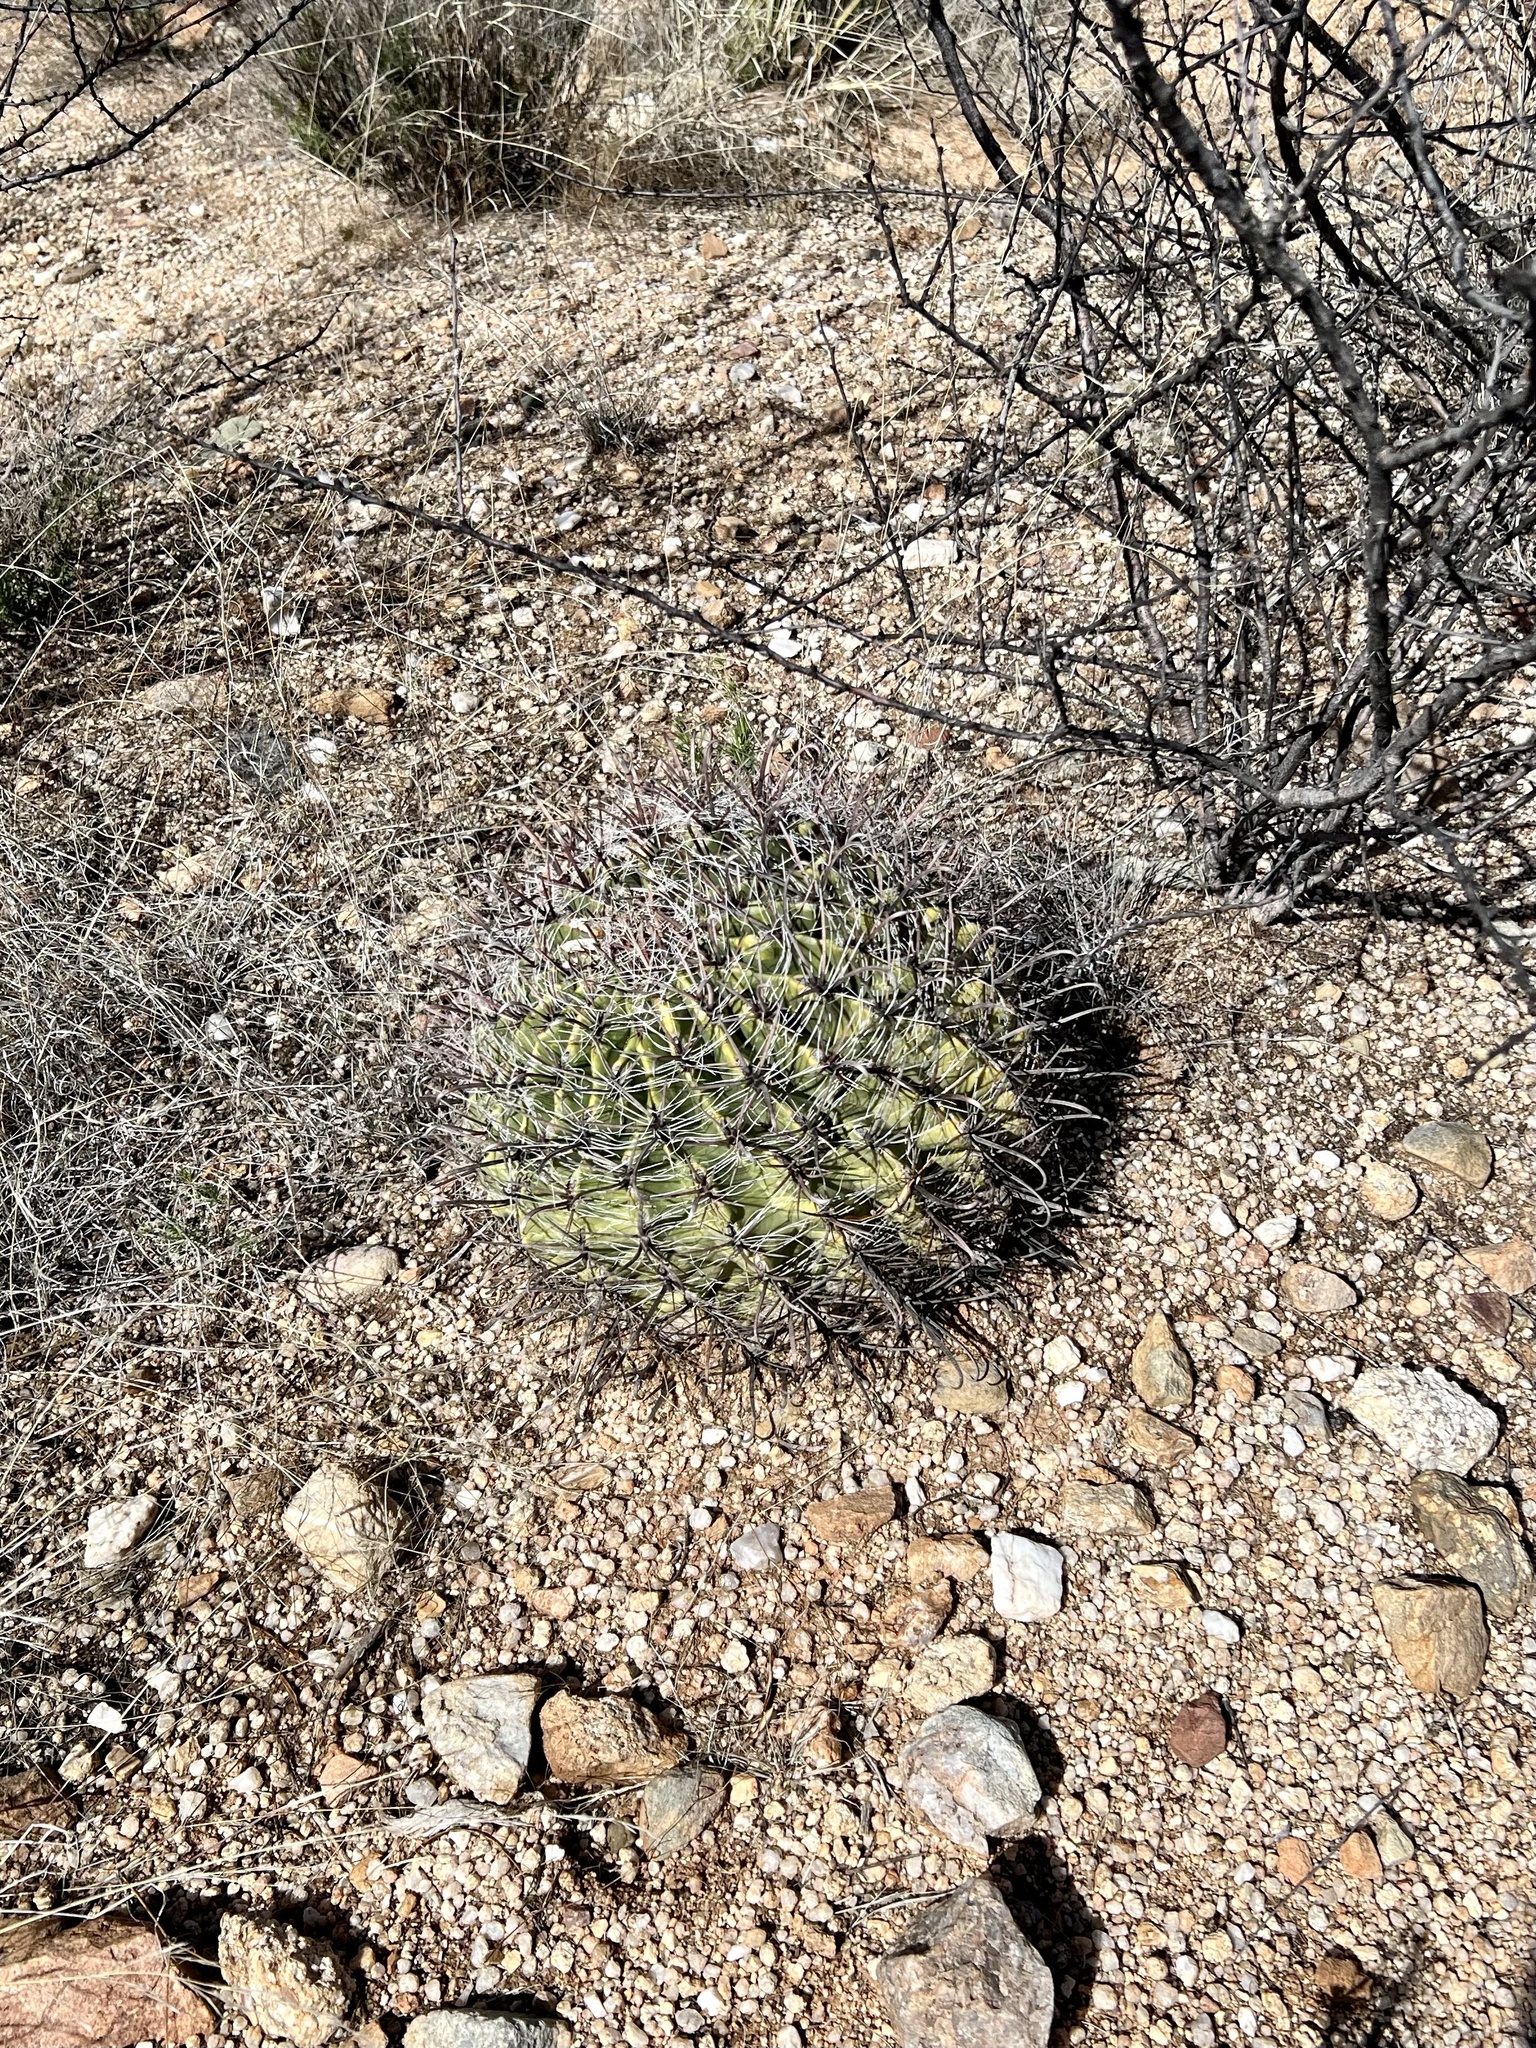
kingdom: Plantae
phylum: Tracheophyta
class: Magnoliopsida
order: Caryophyllales
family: Cactaceae
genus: Ferocactus
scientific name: Ferocactus wislizeni
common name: Candy barrel cactus
